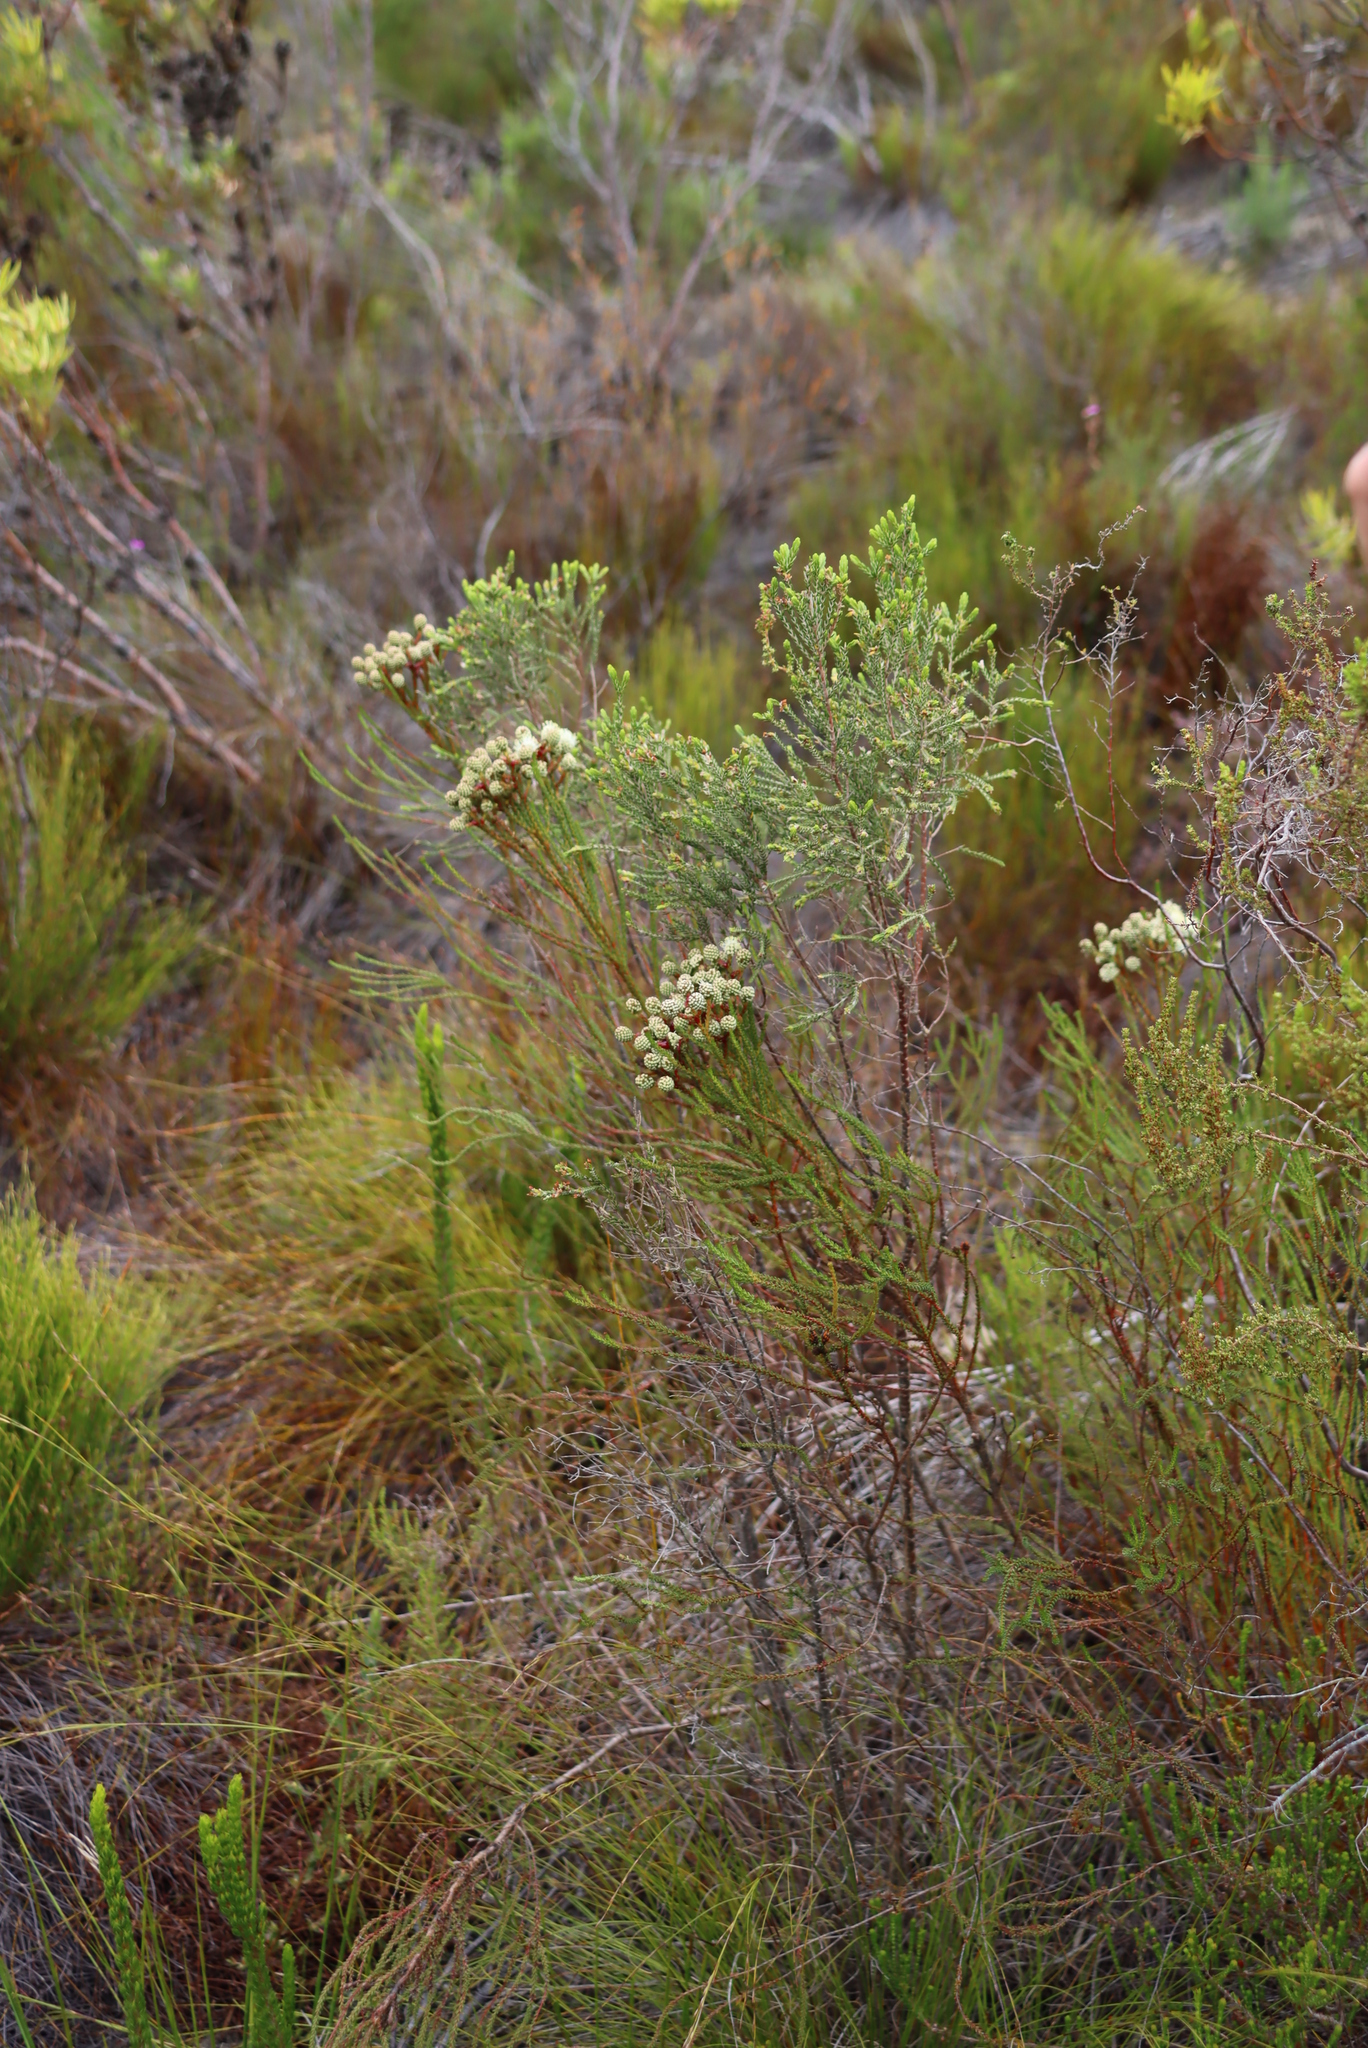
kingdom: Plantae
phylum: Tracheophyta
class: Magnoliopsida
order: Bruniales
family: Bruniaceae
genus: Berzelia
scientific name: Berzelia abrotanoides
